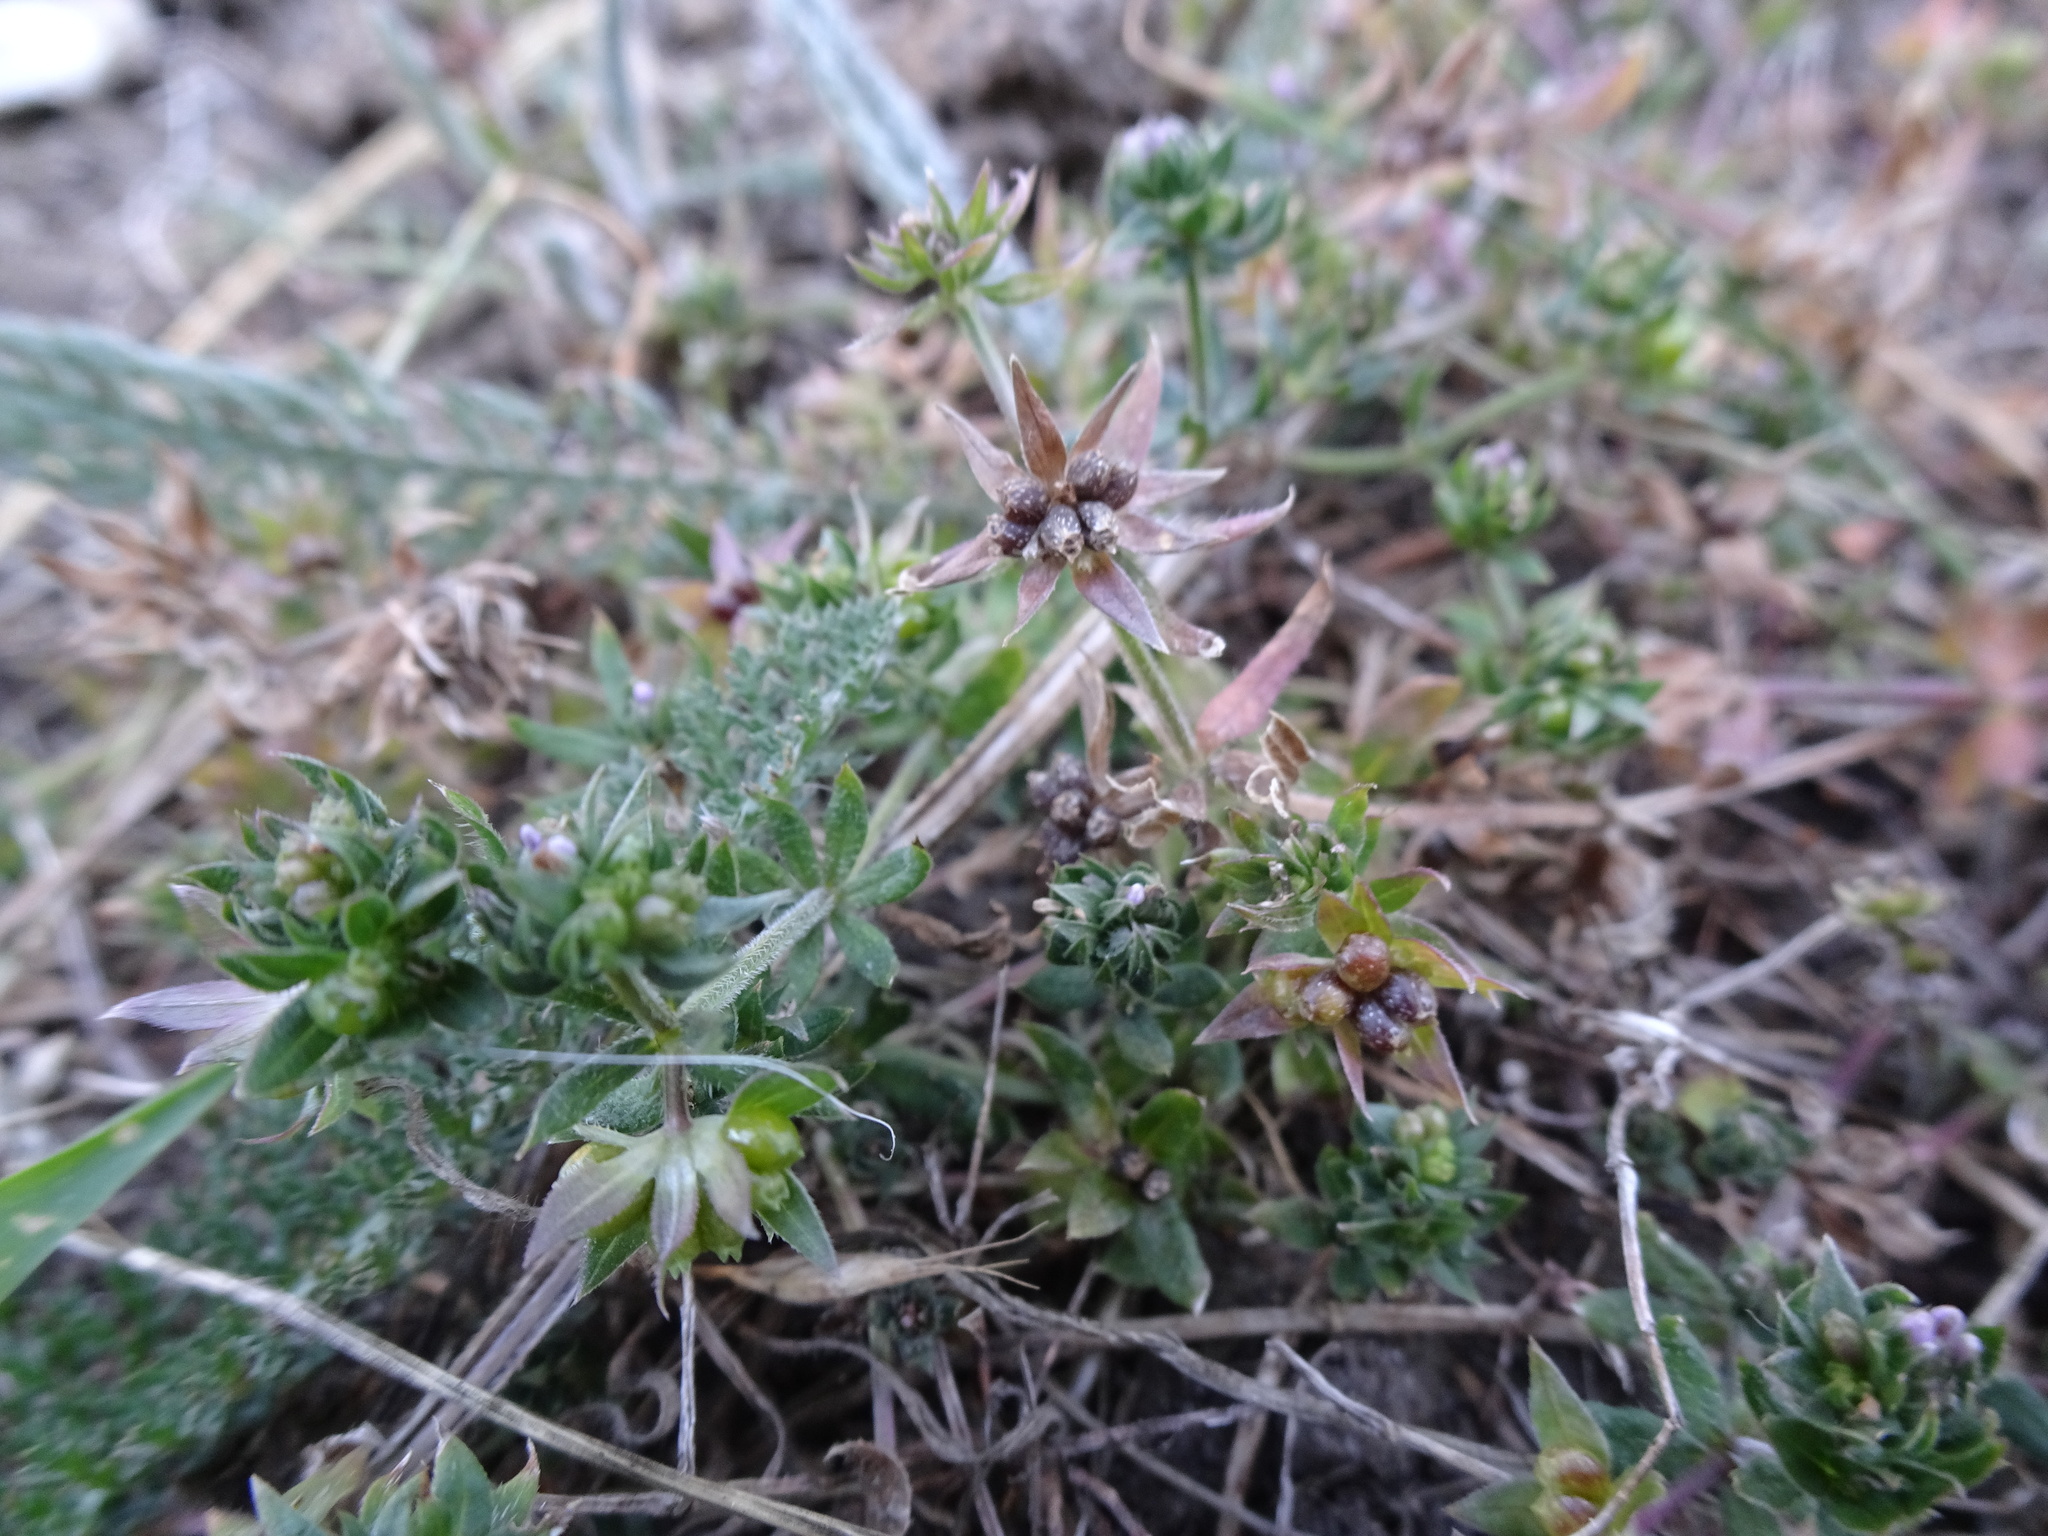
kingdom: Plantae
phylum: Tracheophyta
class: Magnoliopsida
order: Gentianales
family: Rubiaceae
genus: Sherardia
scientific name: Sherardia arvensis
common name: Field madder
